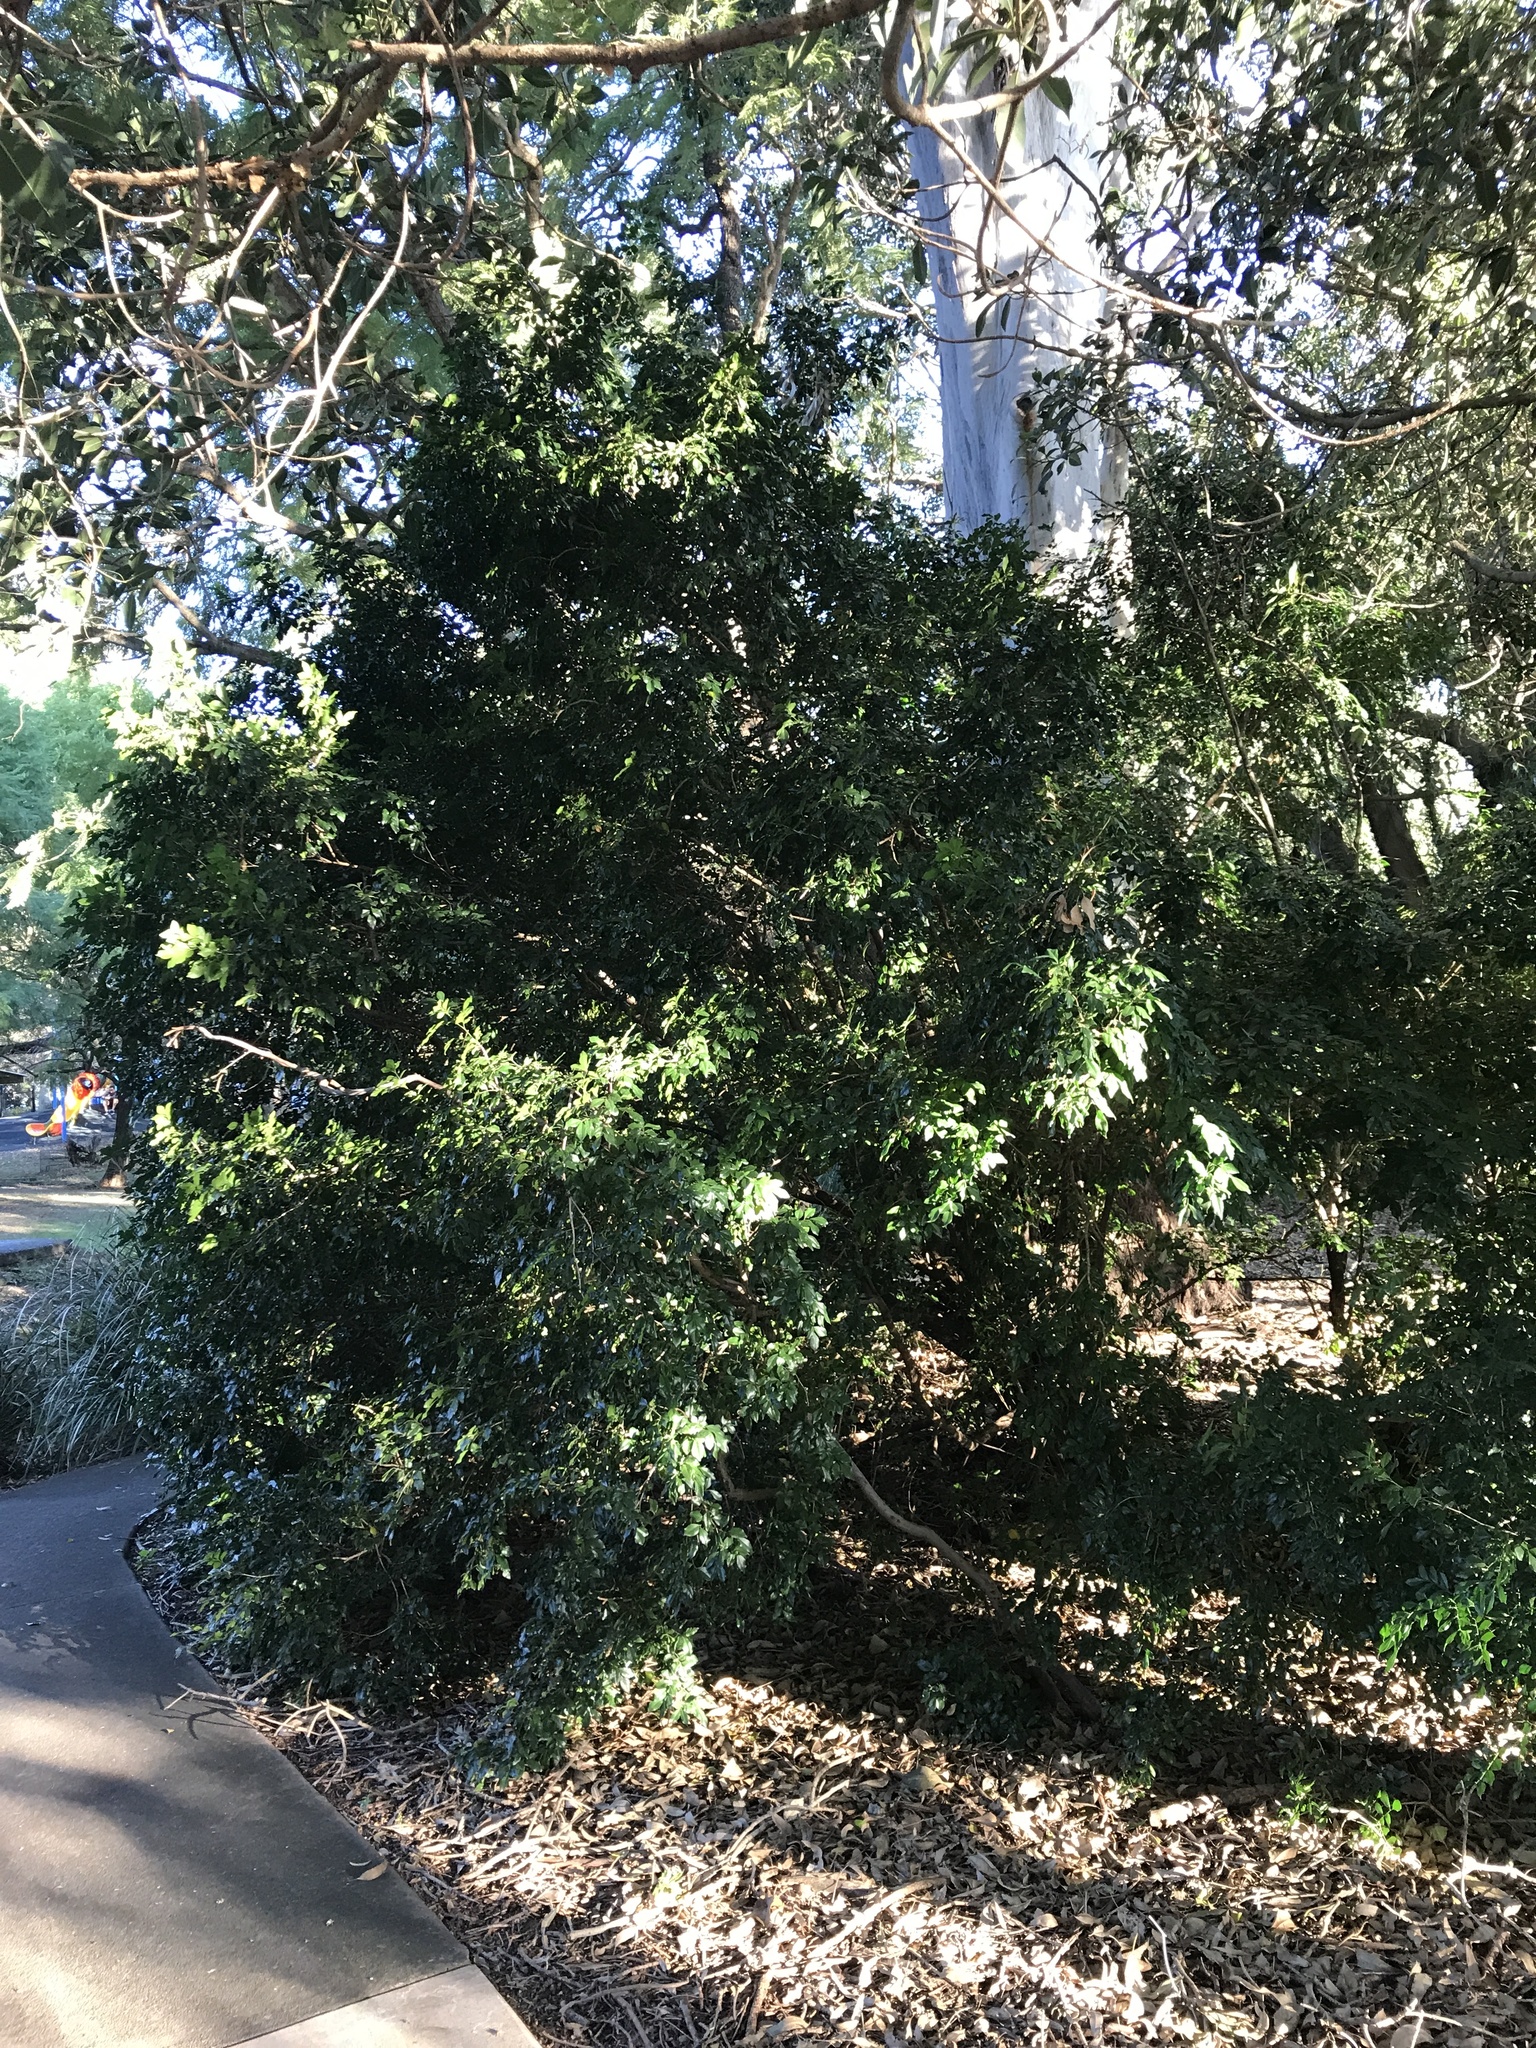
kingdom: Plantae
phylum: Tracheophyta
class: Magnoliopsida
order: Sapindales
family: Rutaceae
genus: Murraya
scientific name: Murraya paniculata
